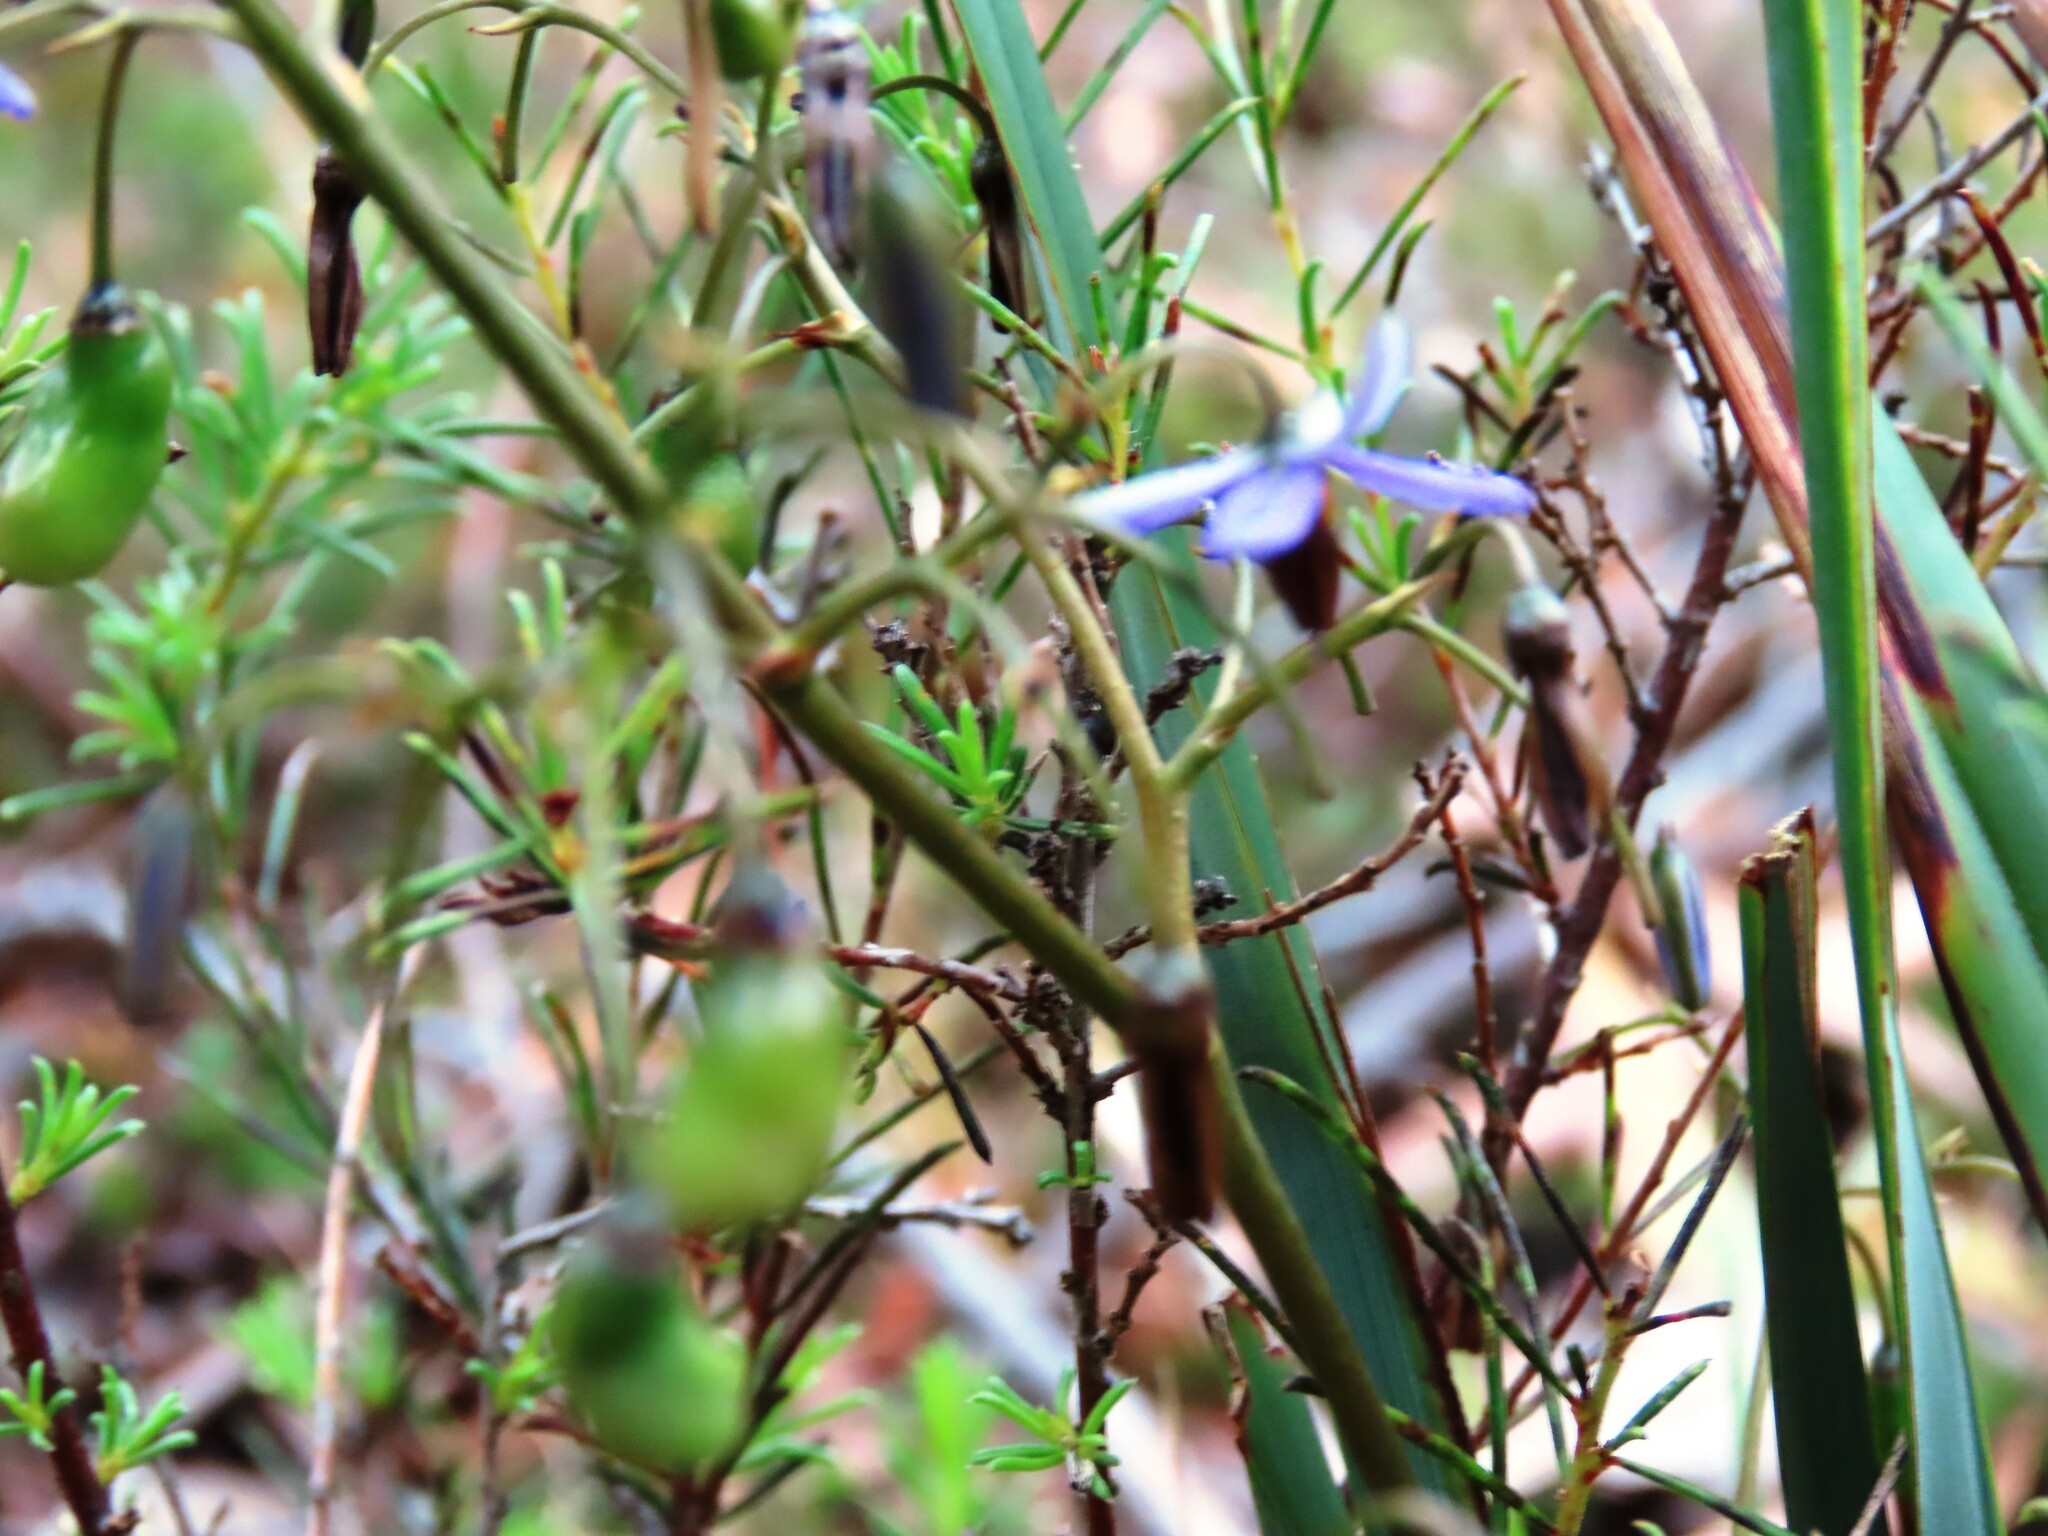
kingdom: Plantae
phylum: Tracheophyta
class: Liliopsida
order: Asparagales
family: Asphodelaceae
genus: Dianella
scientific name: Dianella revoluta
